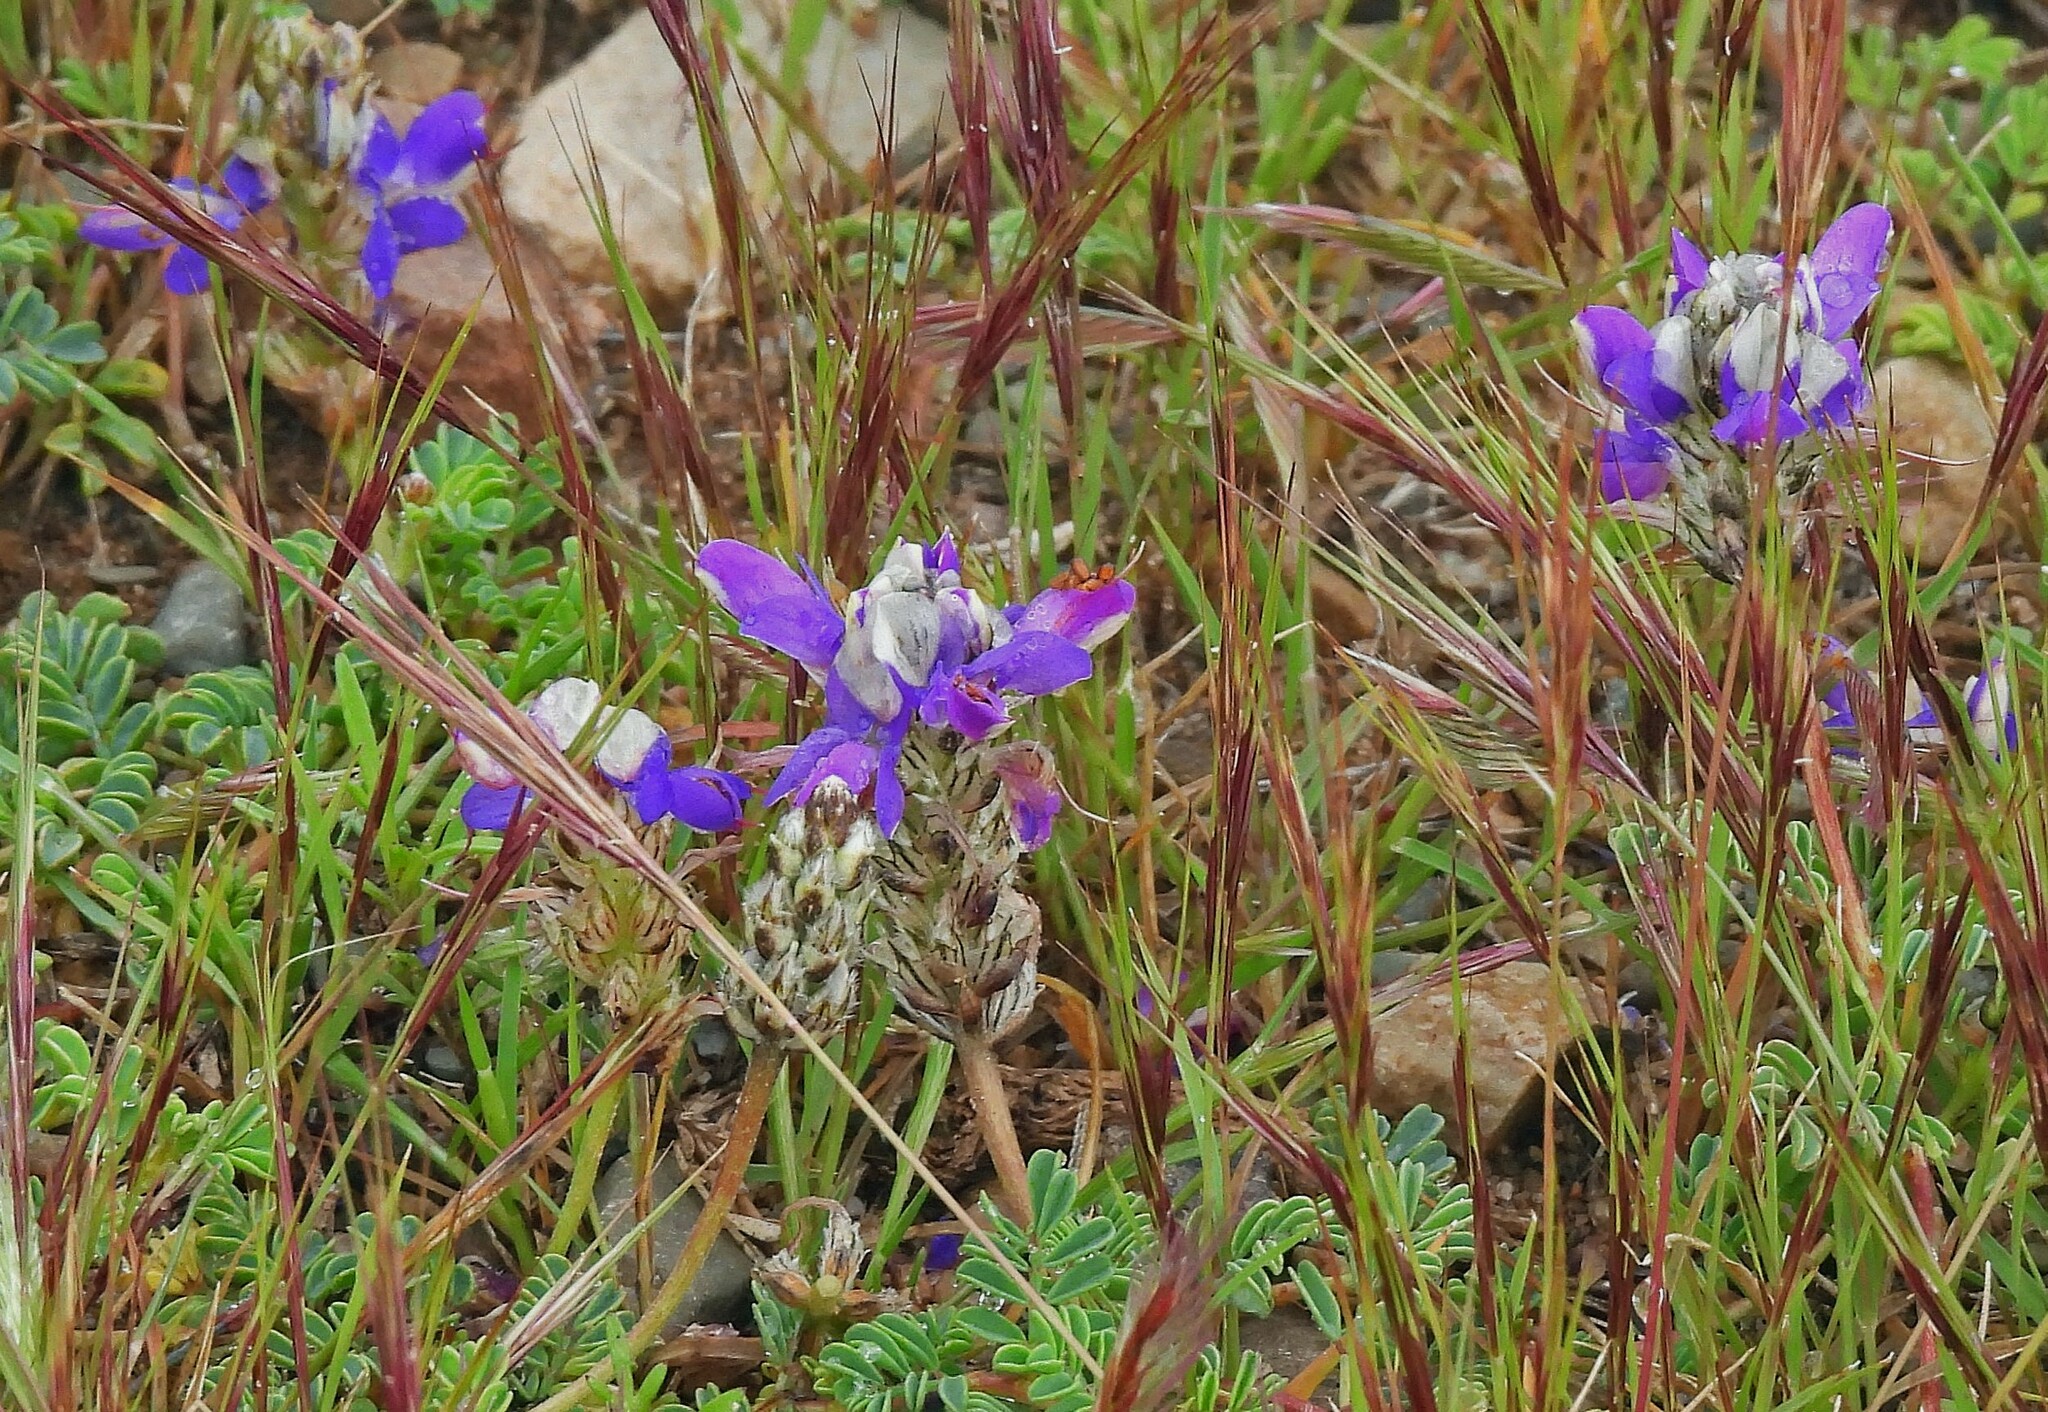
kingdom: Plantae
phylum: Tracheophyta
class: Magnoliopsida
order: Fabales
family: Fabaceae
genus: Dalea
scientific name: Dalea boliviana
